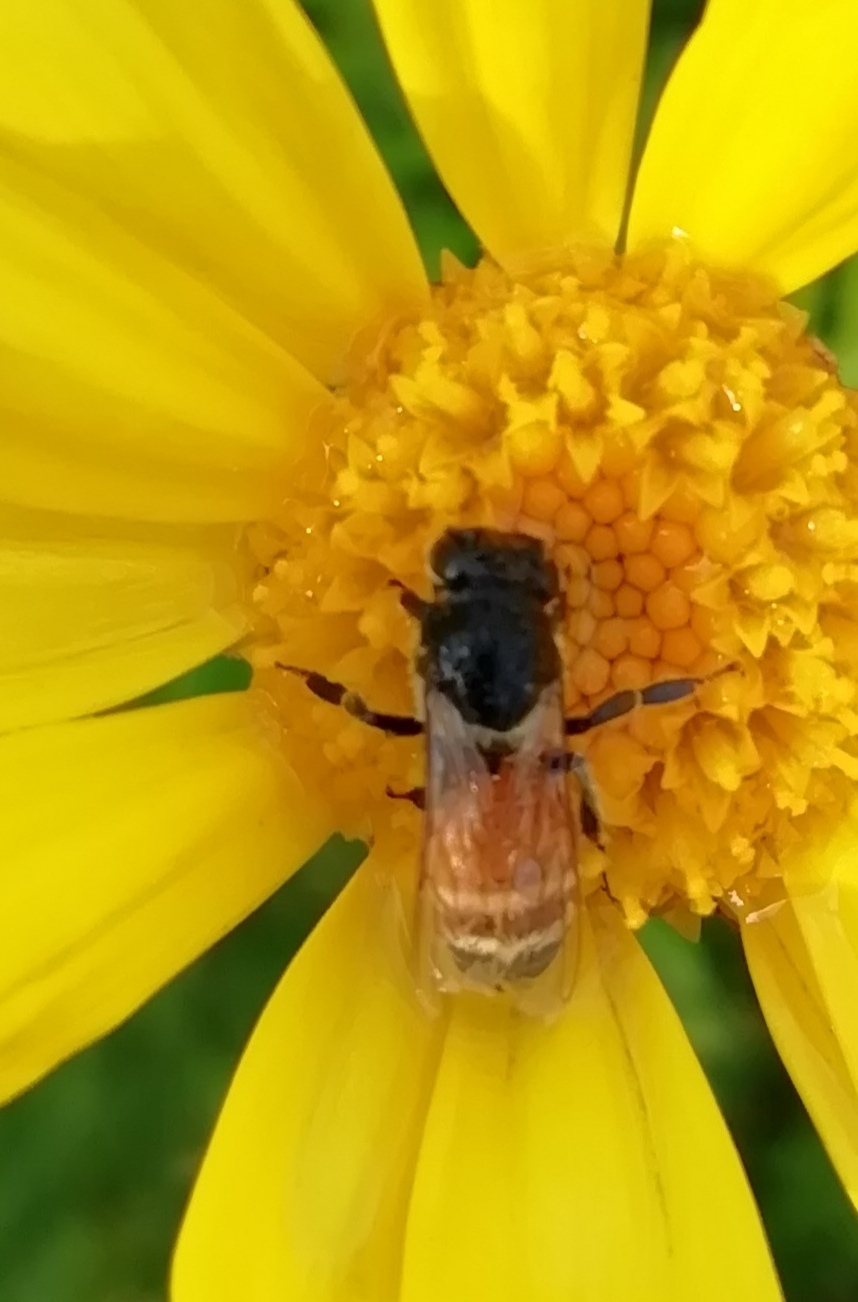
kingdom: Animalia
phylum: Arthropoda
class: Insecta
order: Hymenoptera
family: Apidae
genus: Apis
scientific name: Apis florea
